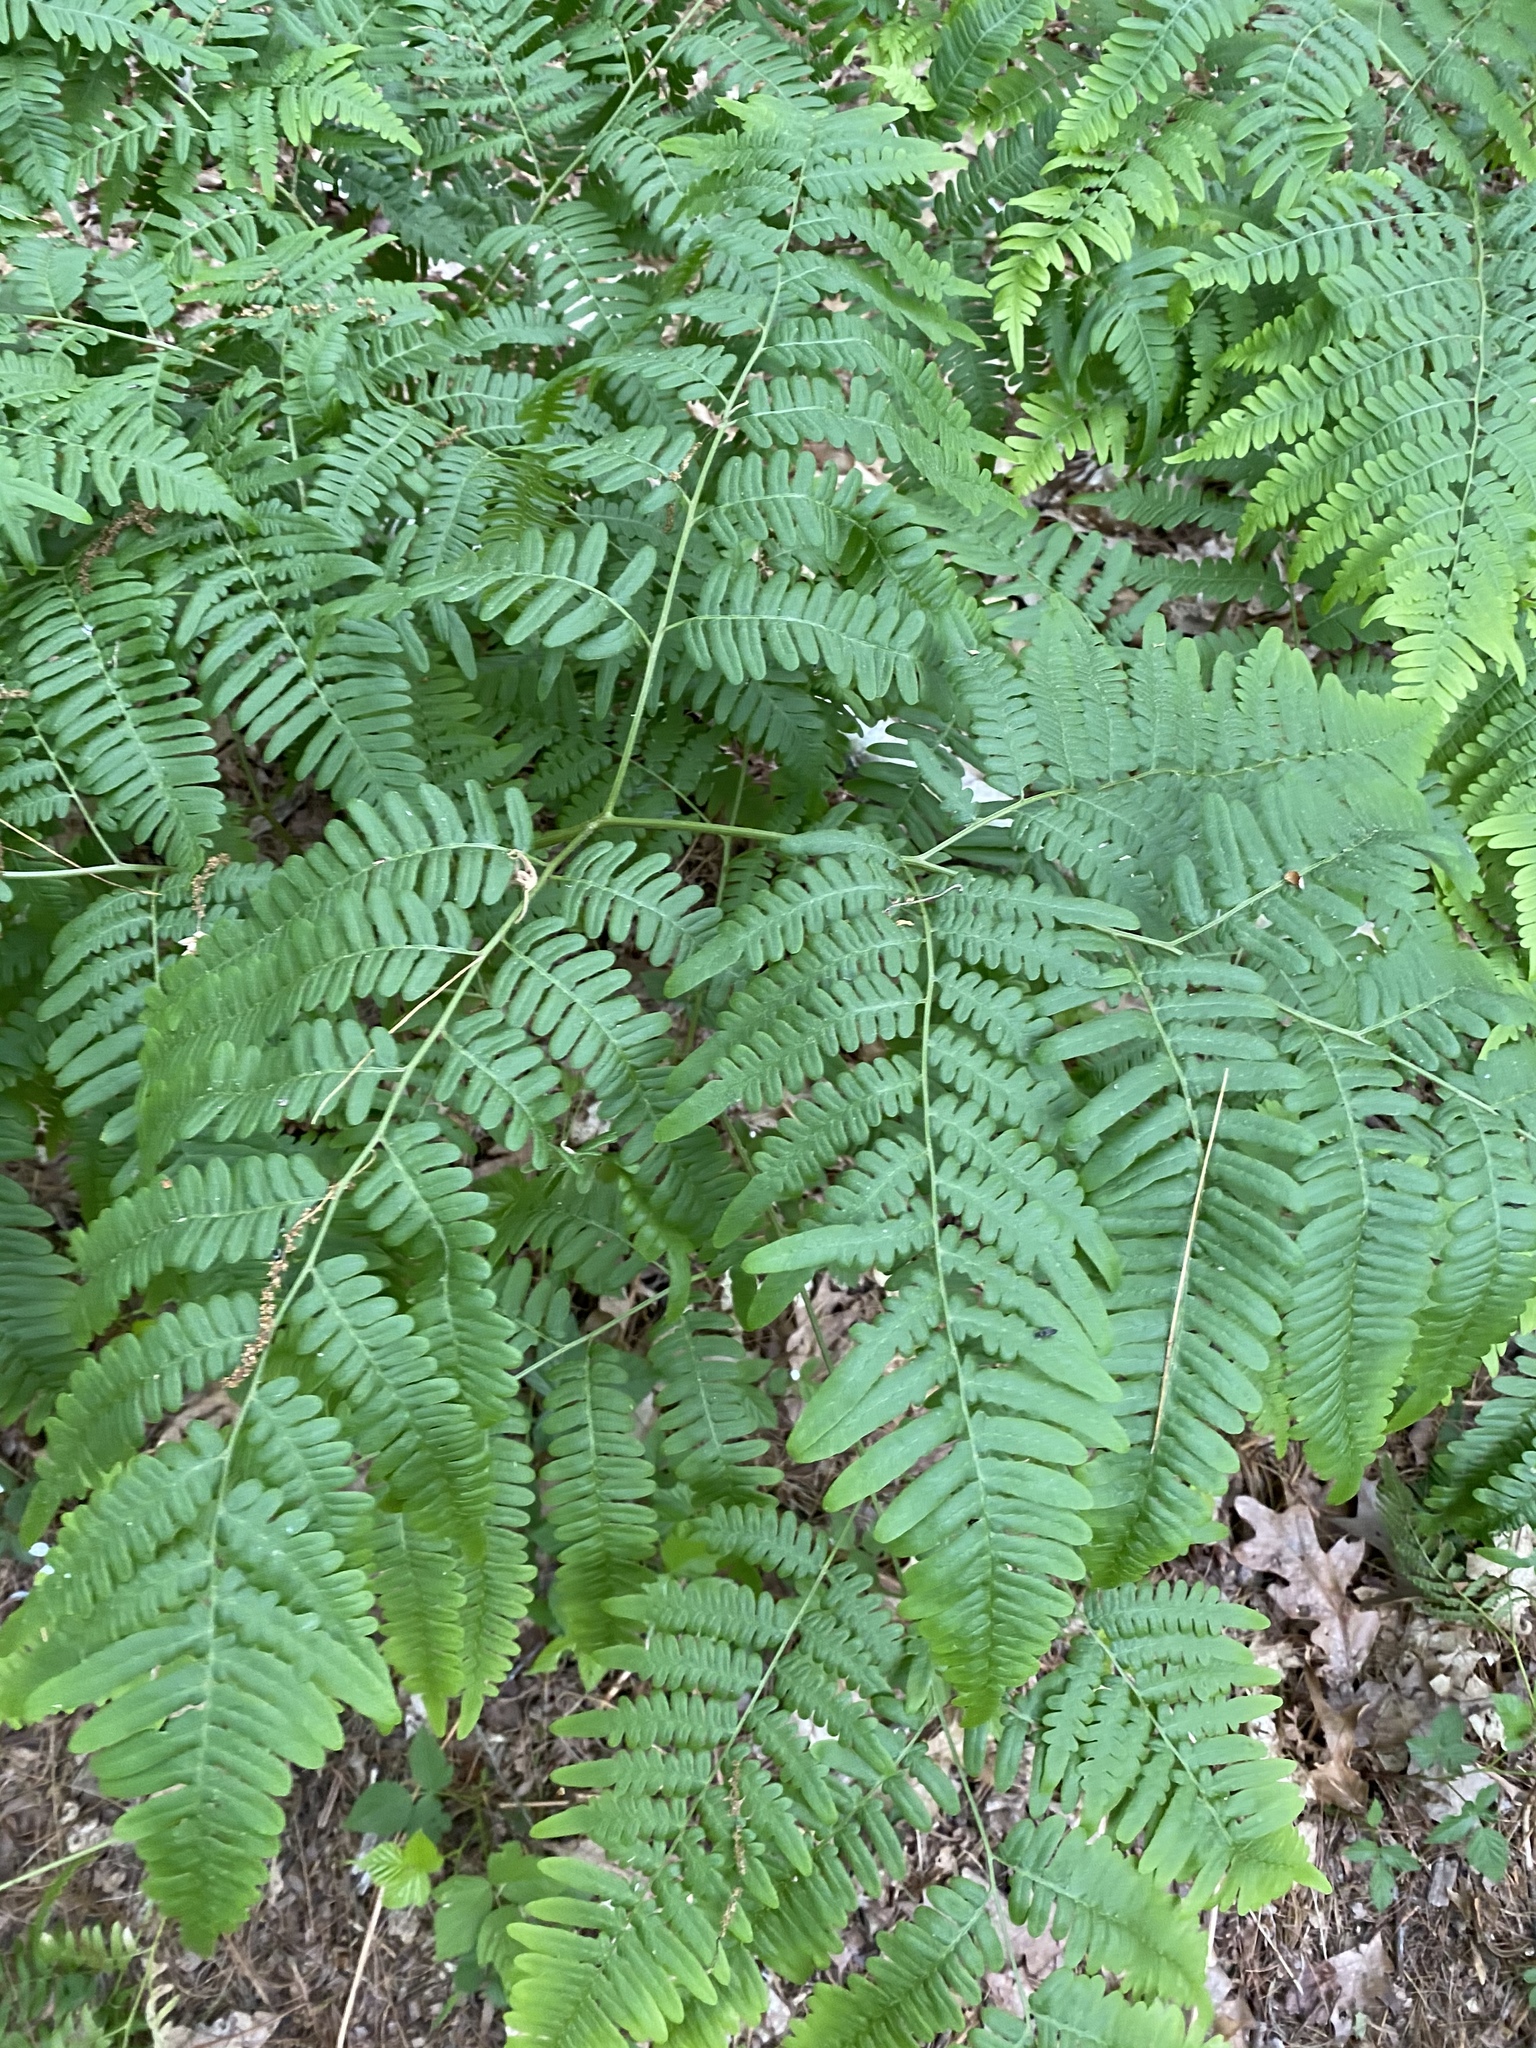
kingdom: Plantae
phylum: Tracheophyta
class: Polypodiopsida
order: Polypodiales
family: Dennstaedtiaceae
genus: Pteridium
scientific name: Pteridium aquilinum
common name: Bracken
